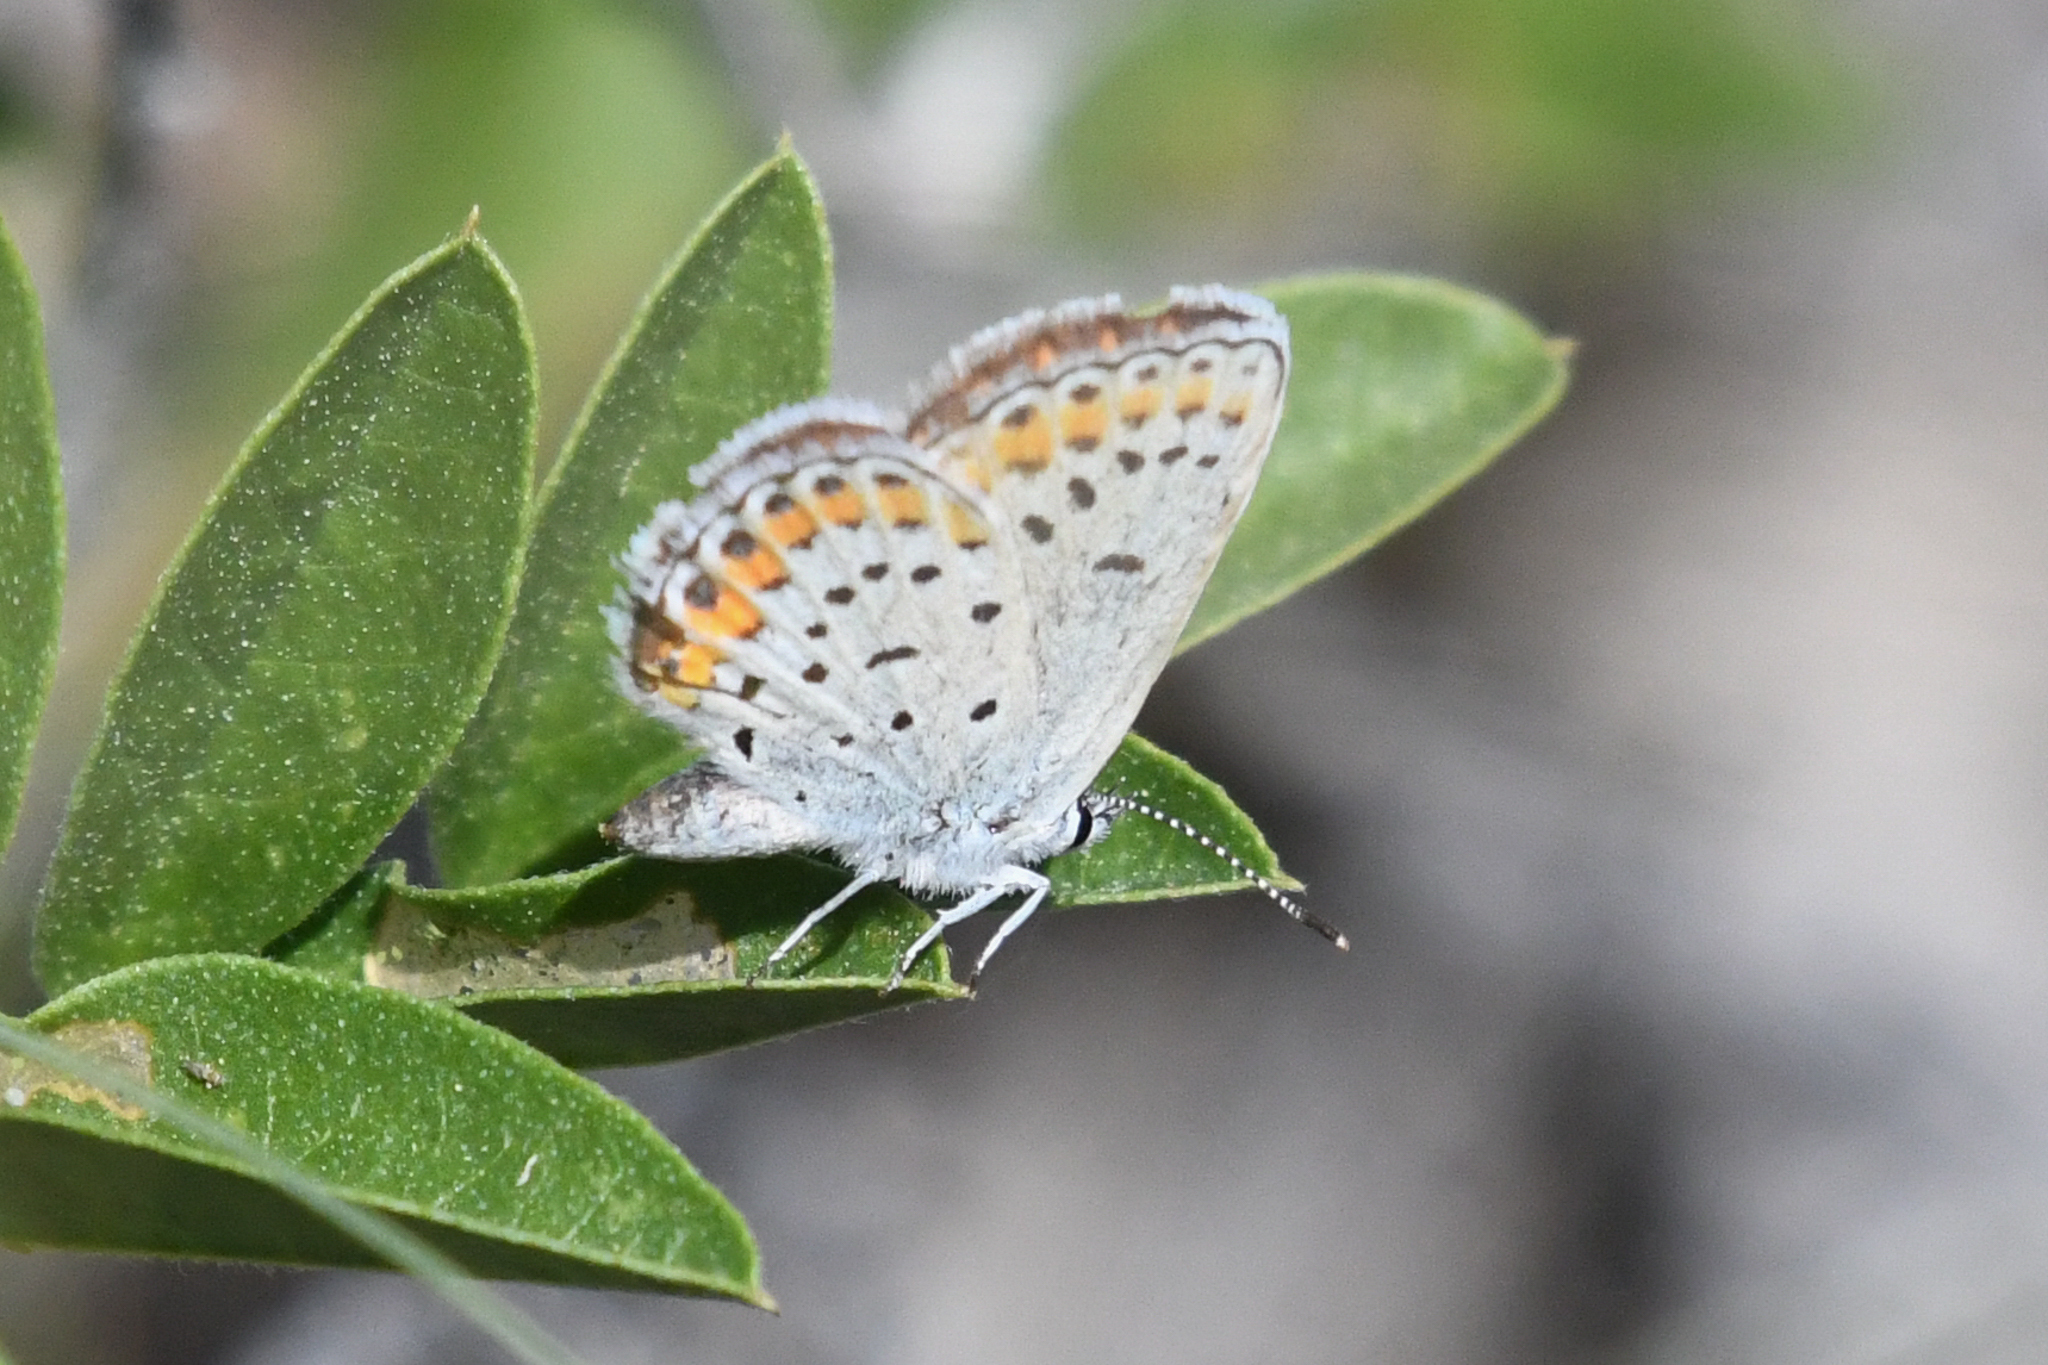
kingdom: Animalia
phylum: Arthropoda
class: Insecta
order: Lepidoptera
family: Lycaenidae
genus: Lycaeides
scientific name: Lycaeides melissa
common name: Melissa blue
